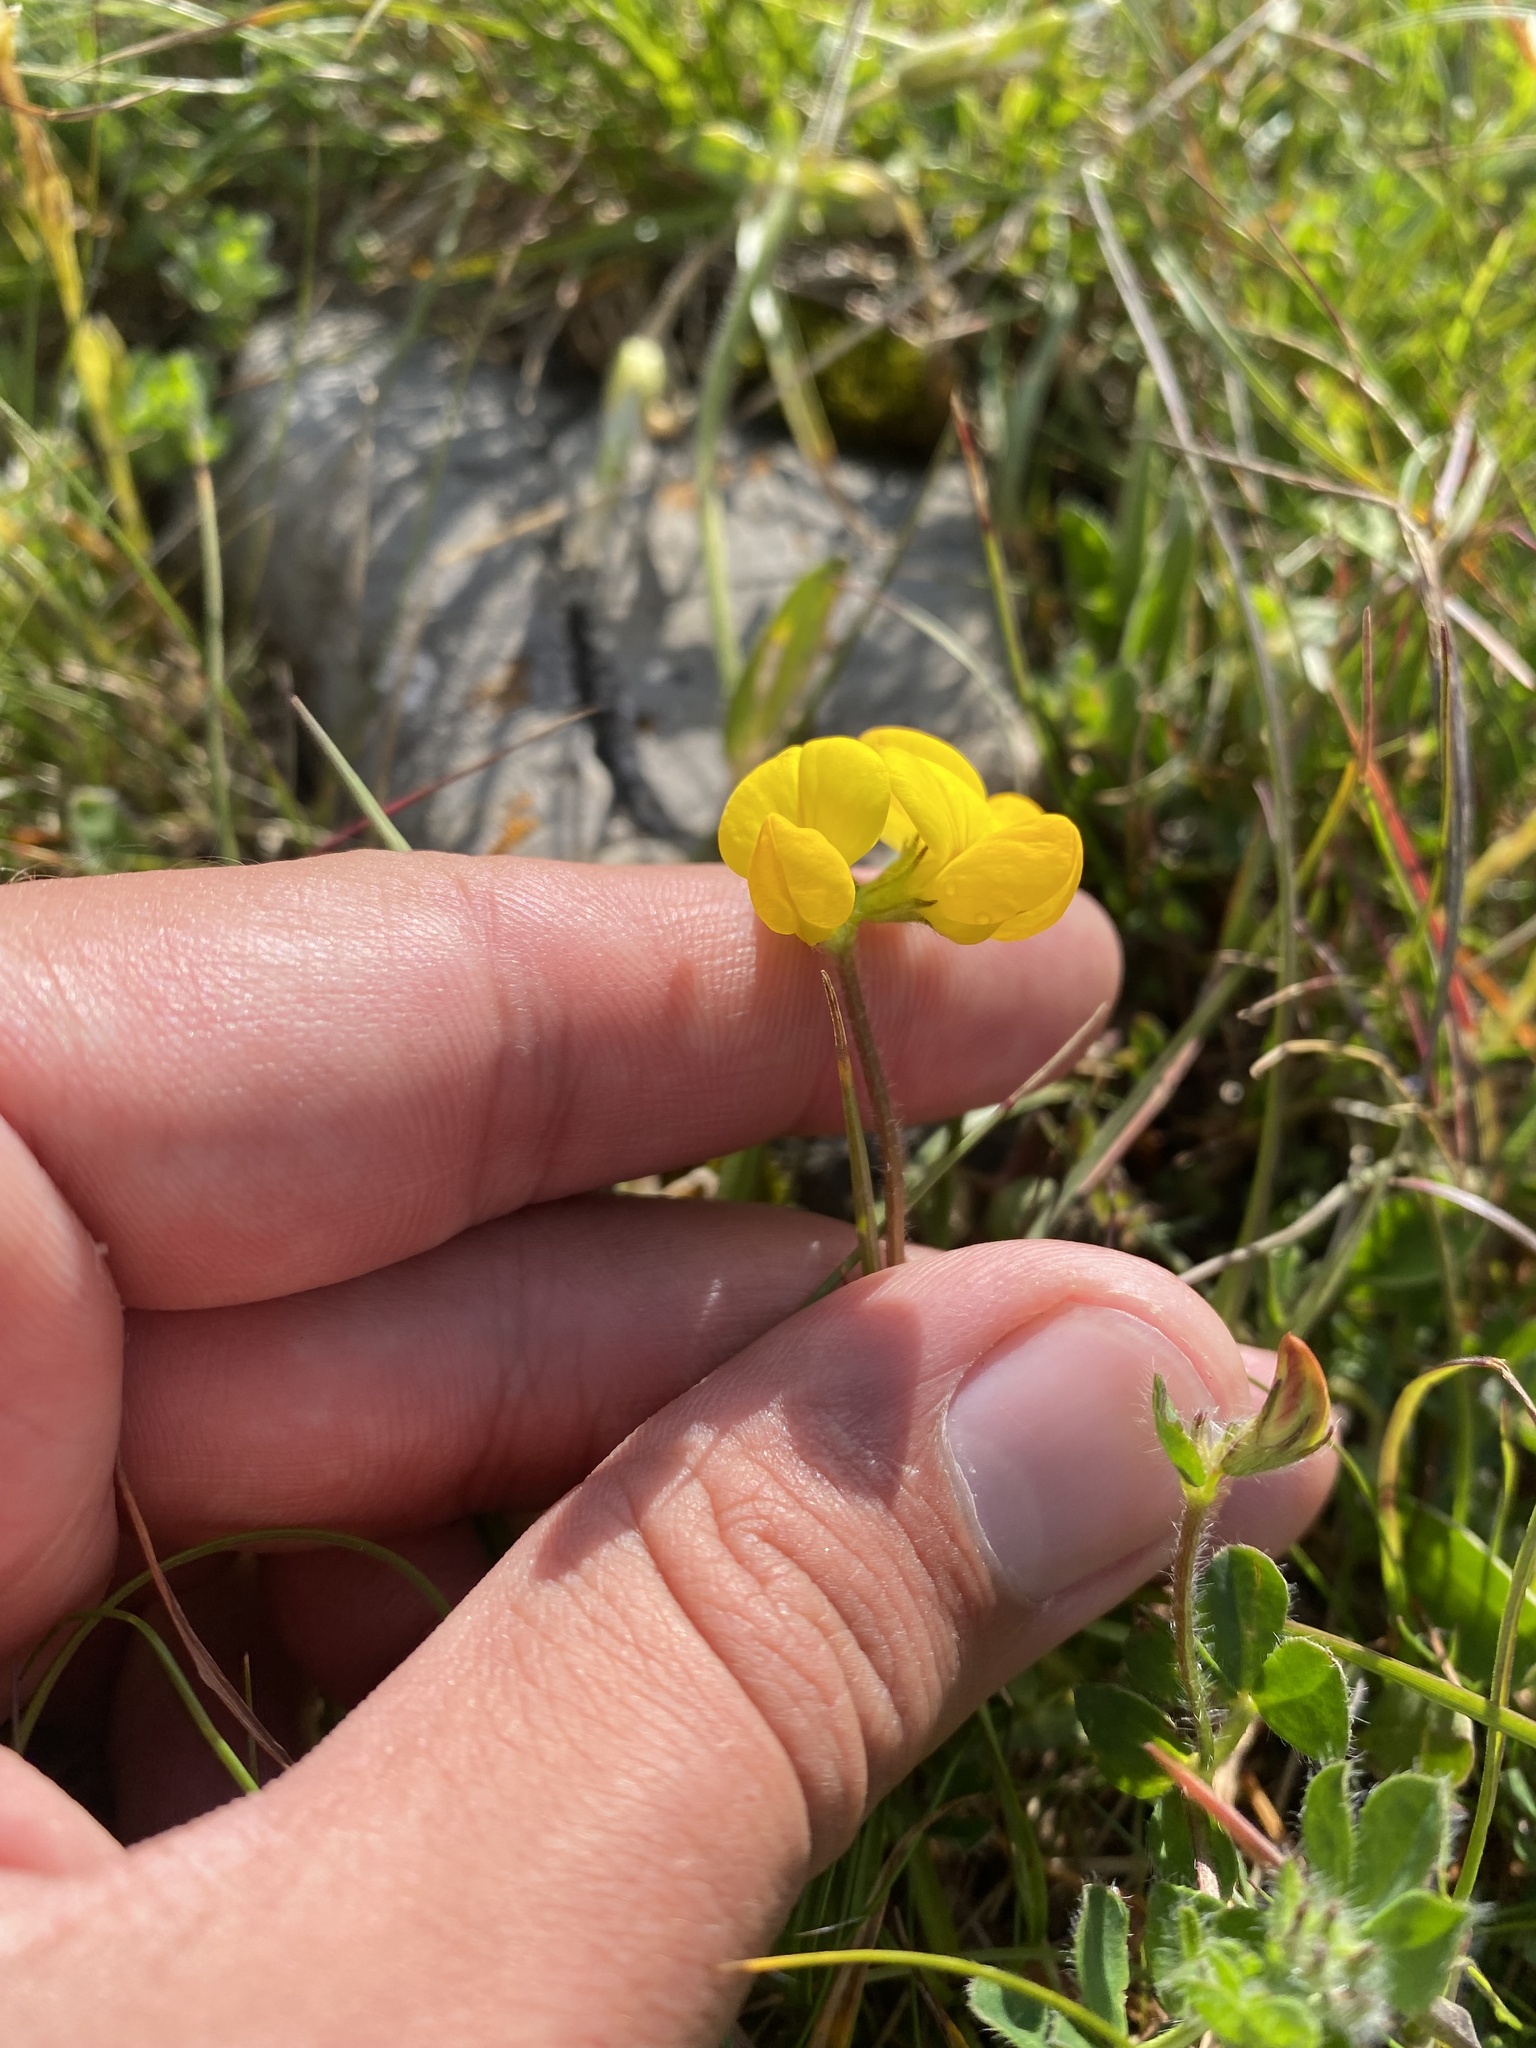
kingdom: Plantae
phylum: Tracheophyta
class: Magnoliopsida
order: Fabales
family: Fabaceae
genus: Lotus
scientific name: Lotus corniculatus
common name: Common bird's-foot-trefoil
